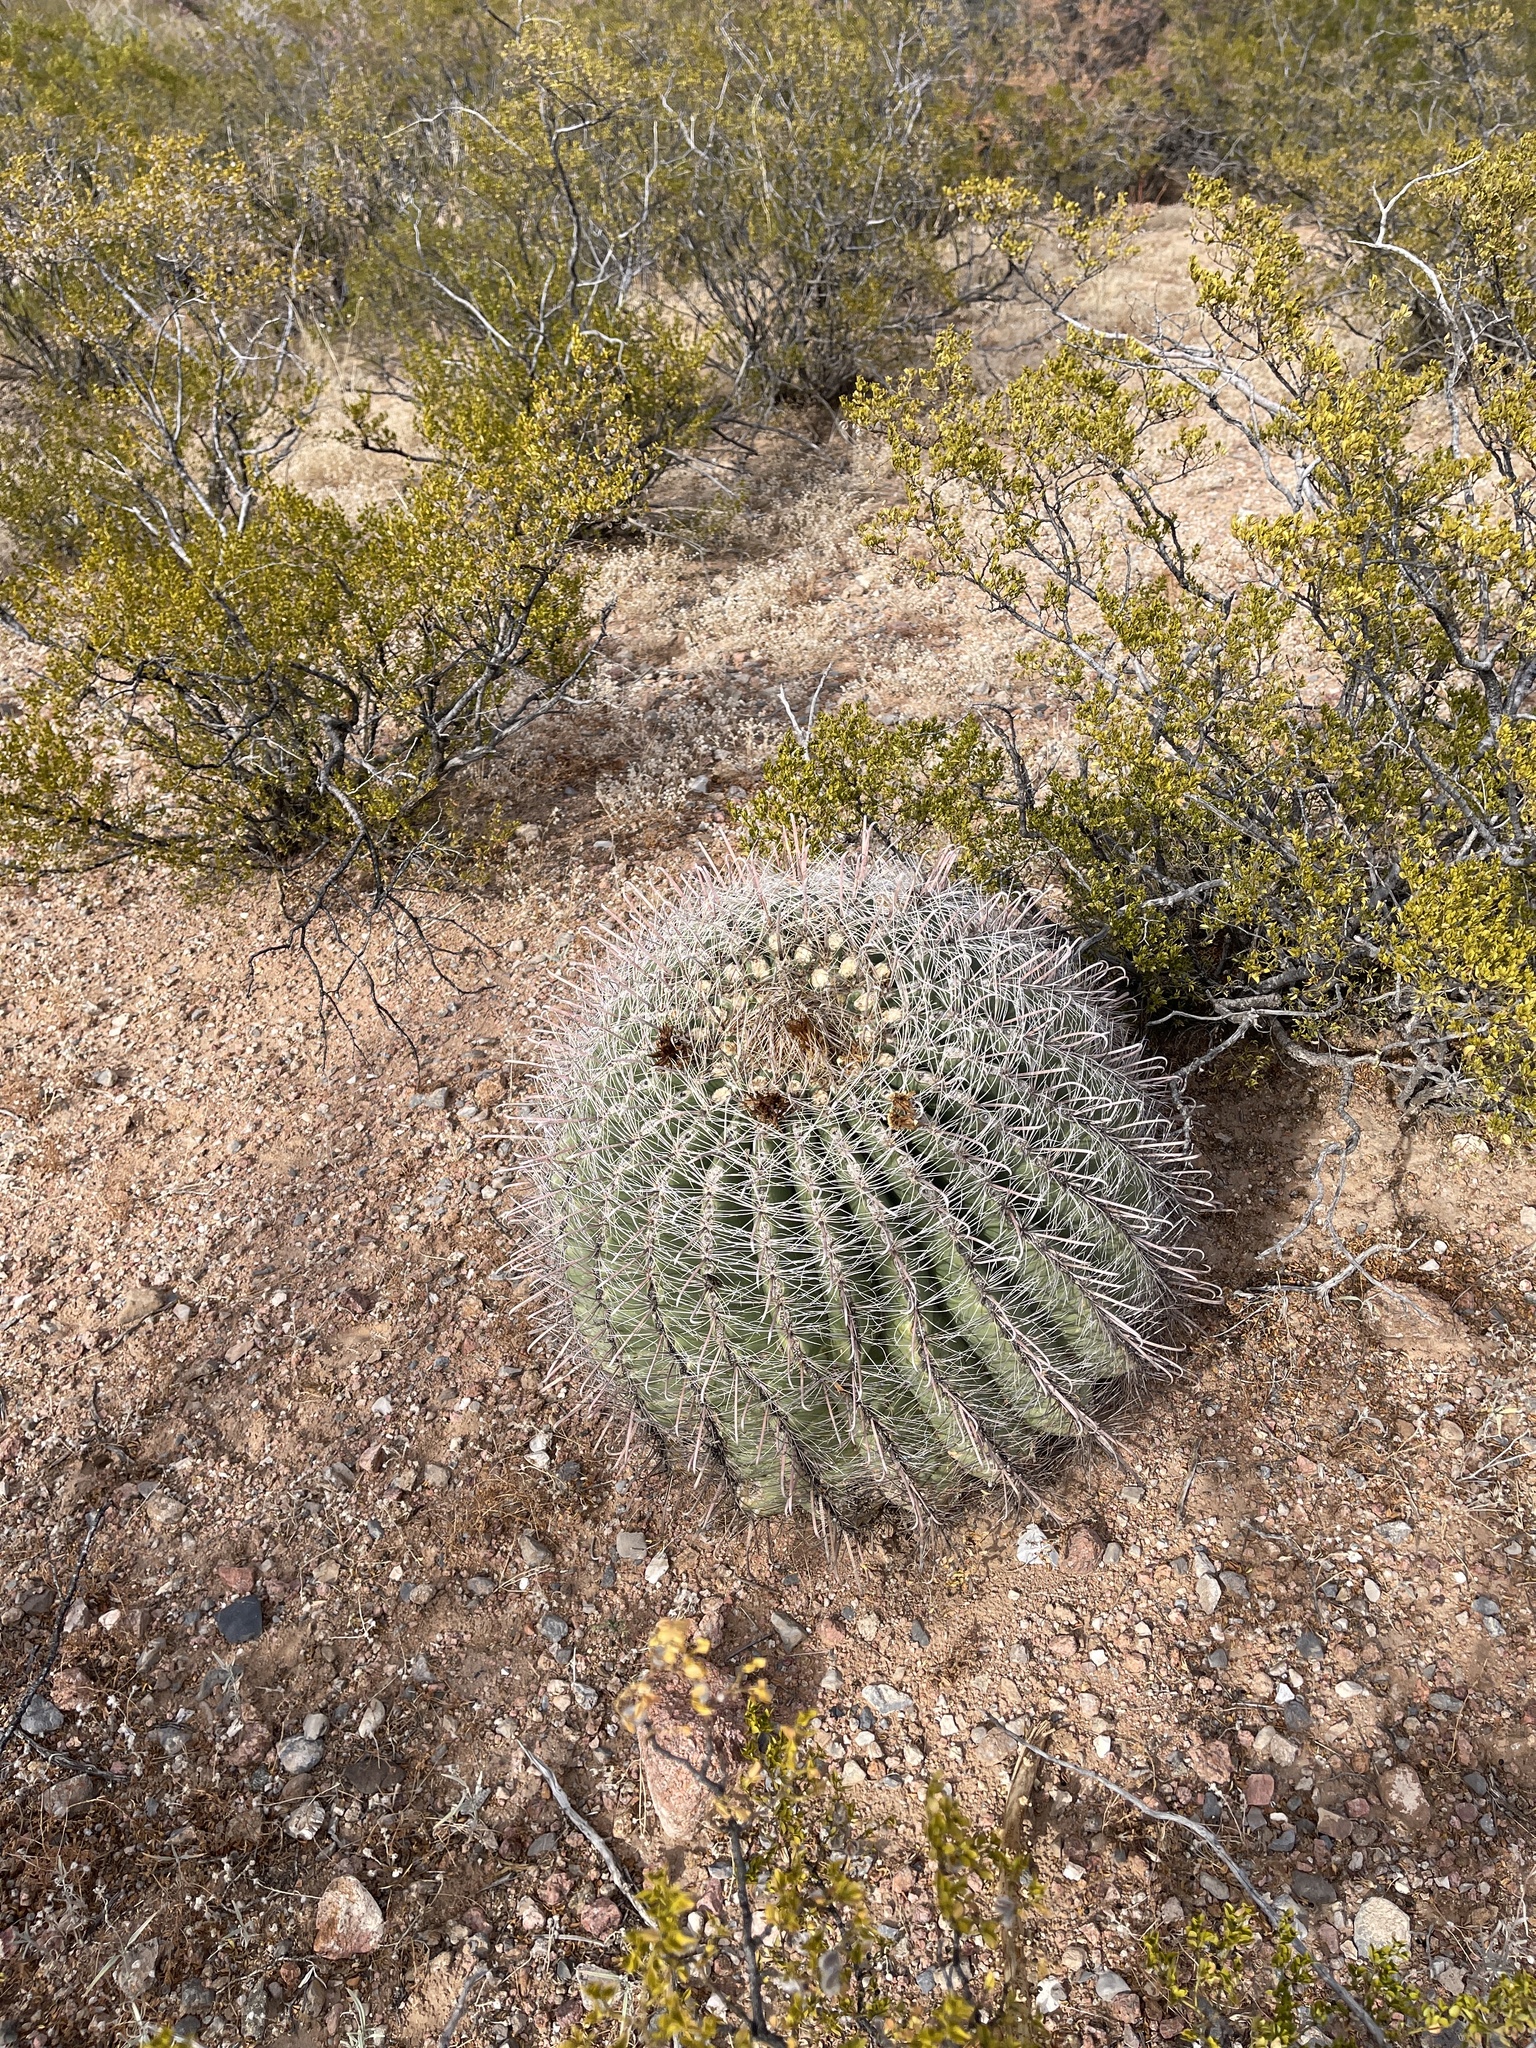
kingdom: Plantae
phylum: Tracheophyta
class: Magnoliopsida
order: Caryophyllales
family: Cactaceae
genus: Ferocactus
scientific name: Ferocactus wislizeni
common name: Candy barrel cactus
